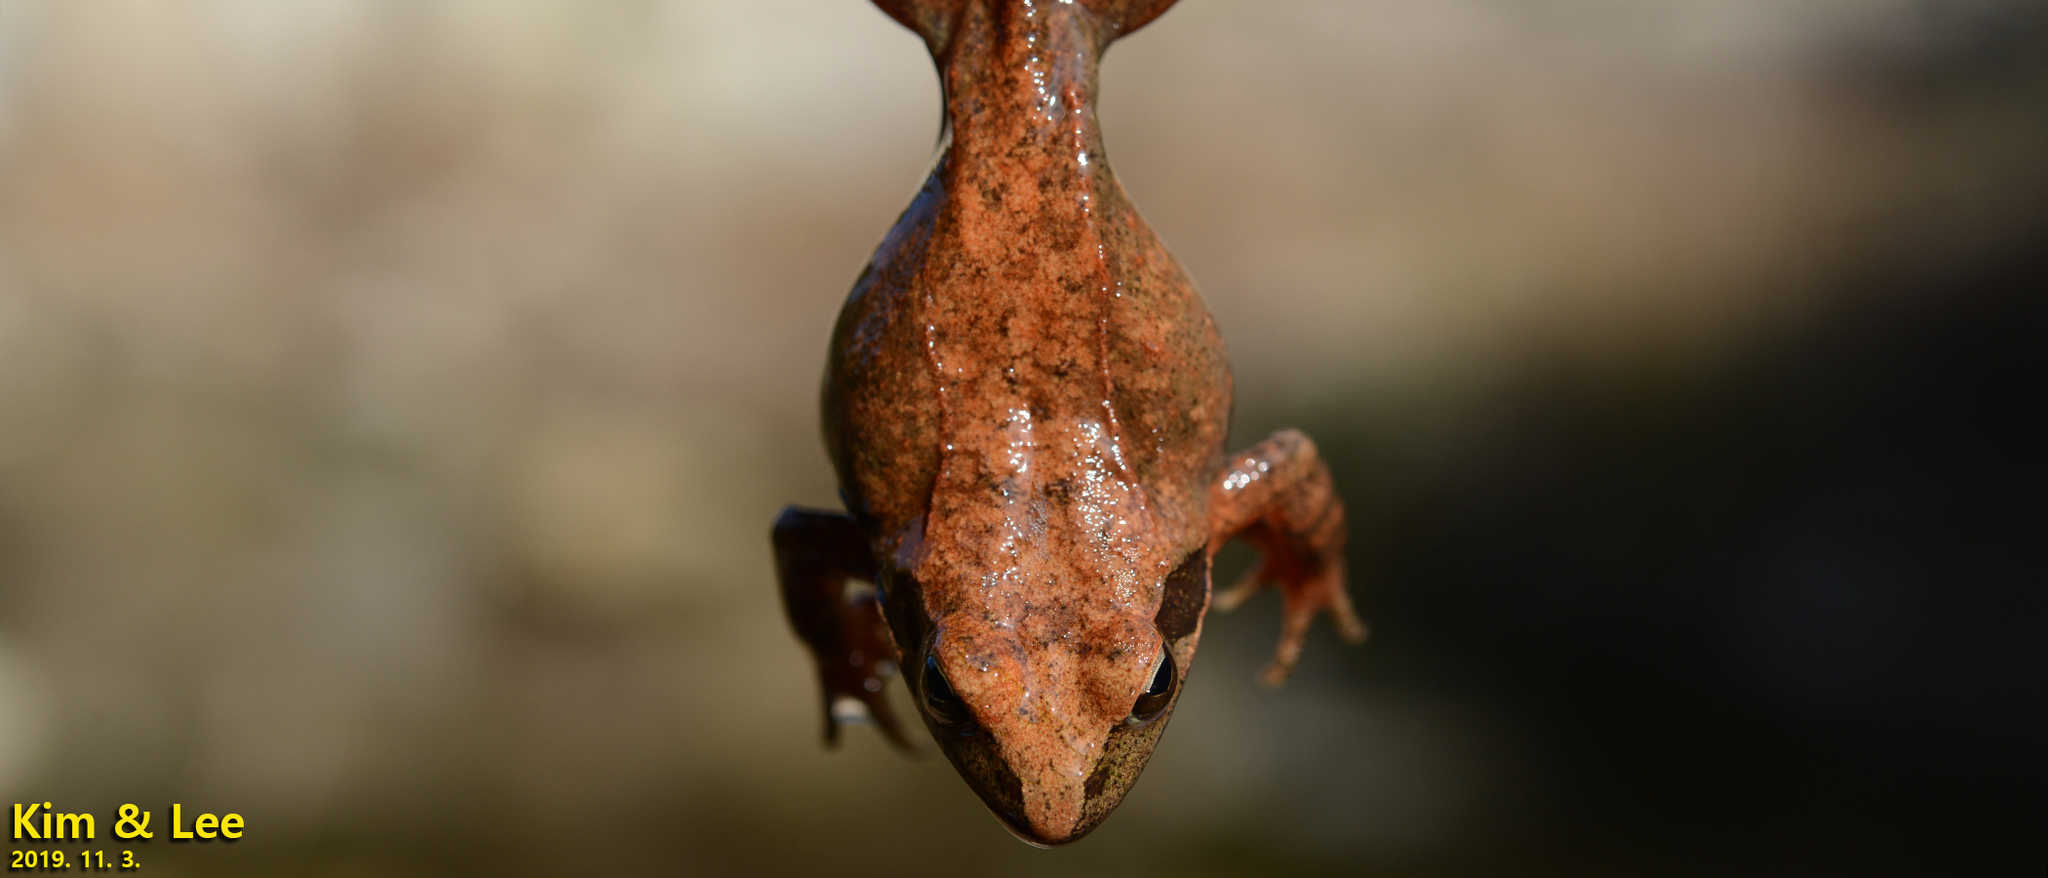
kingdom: Animalia
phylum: Chordata
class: Amphibia
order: Anura
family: Ranidae
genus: Rana
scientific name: Rana huanrenensis
